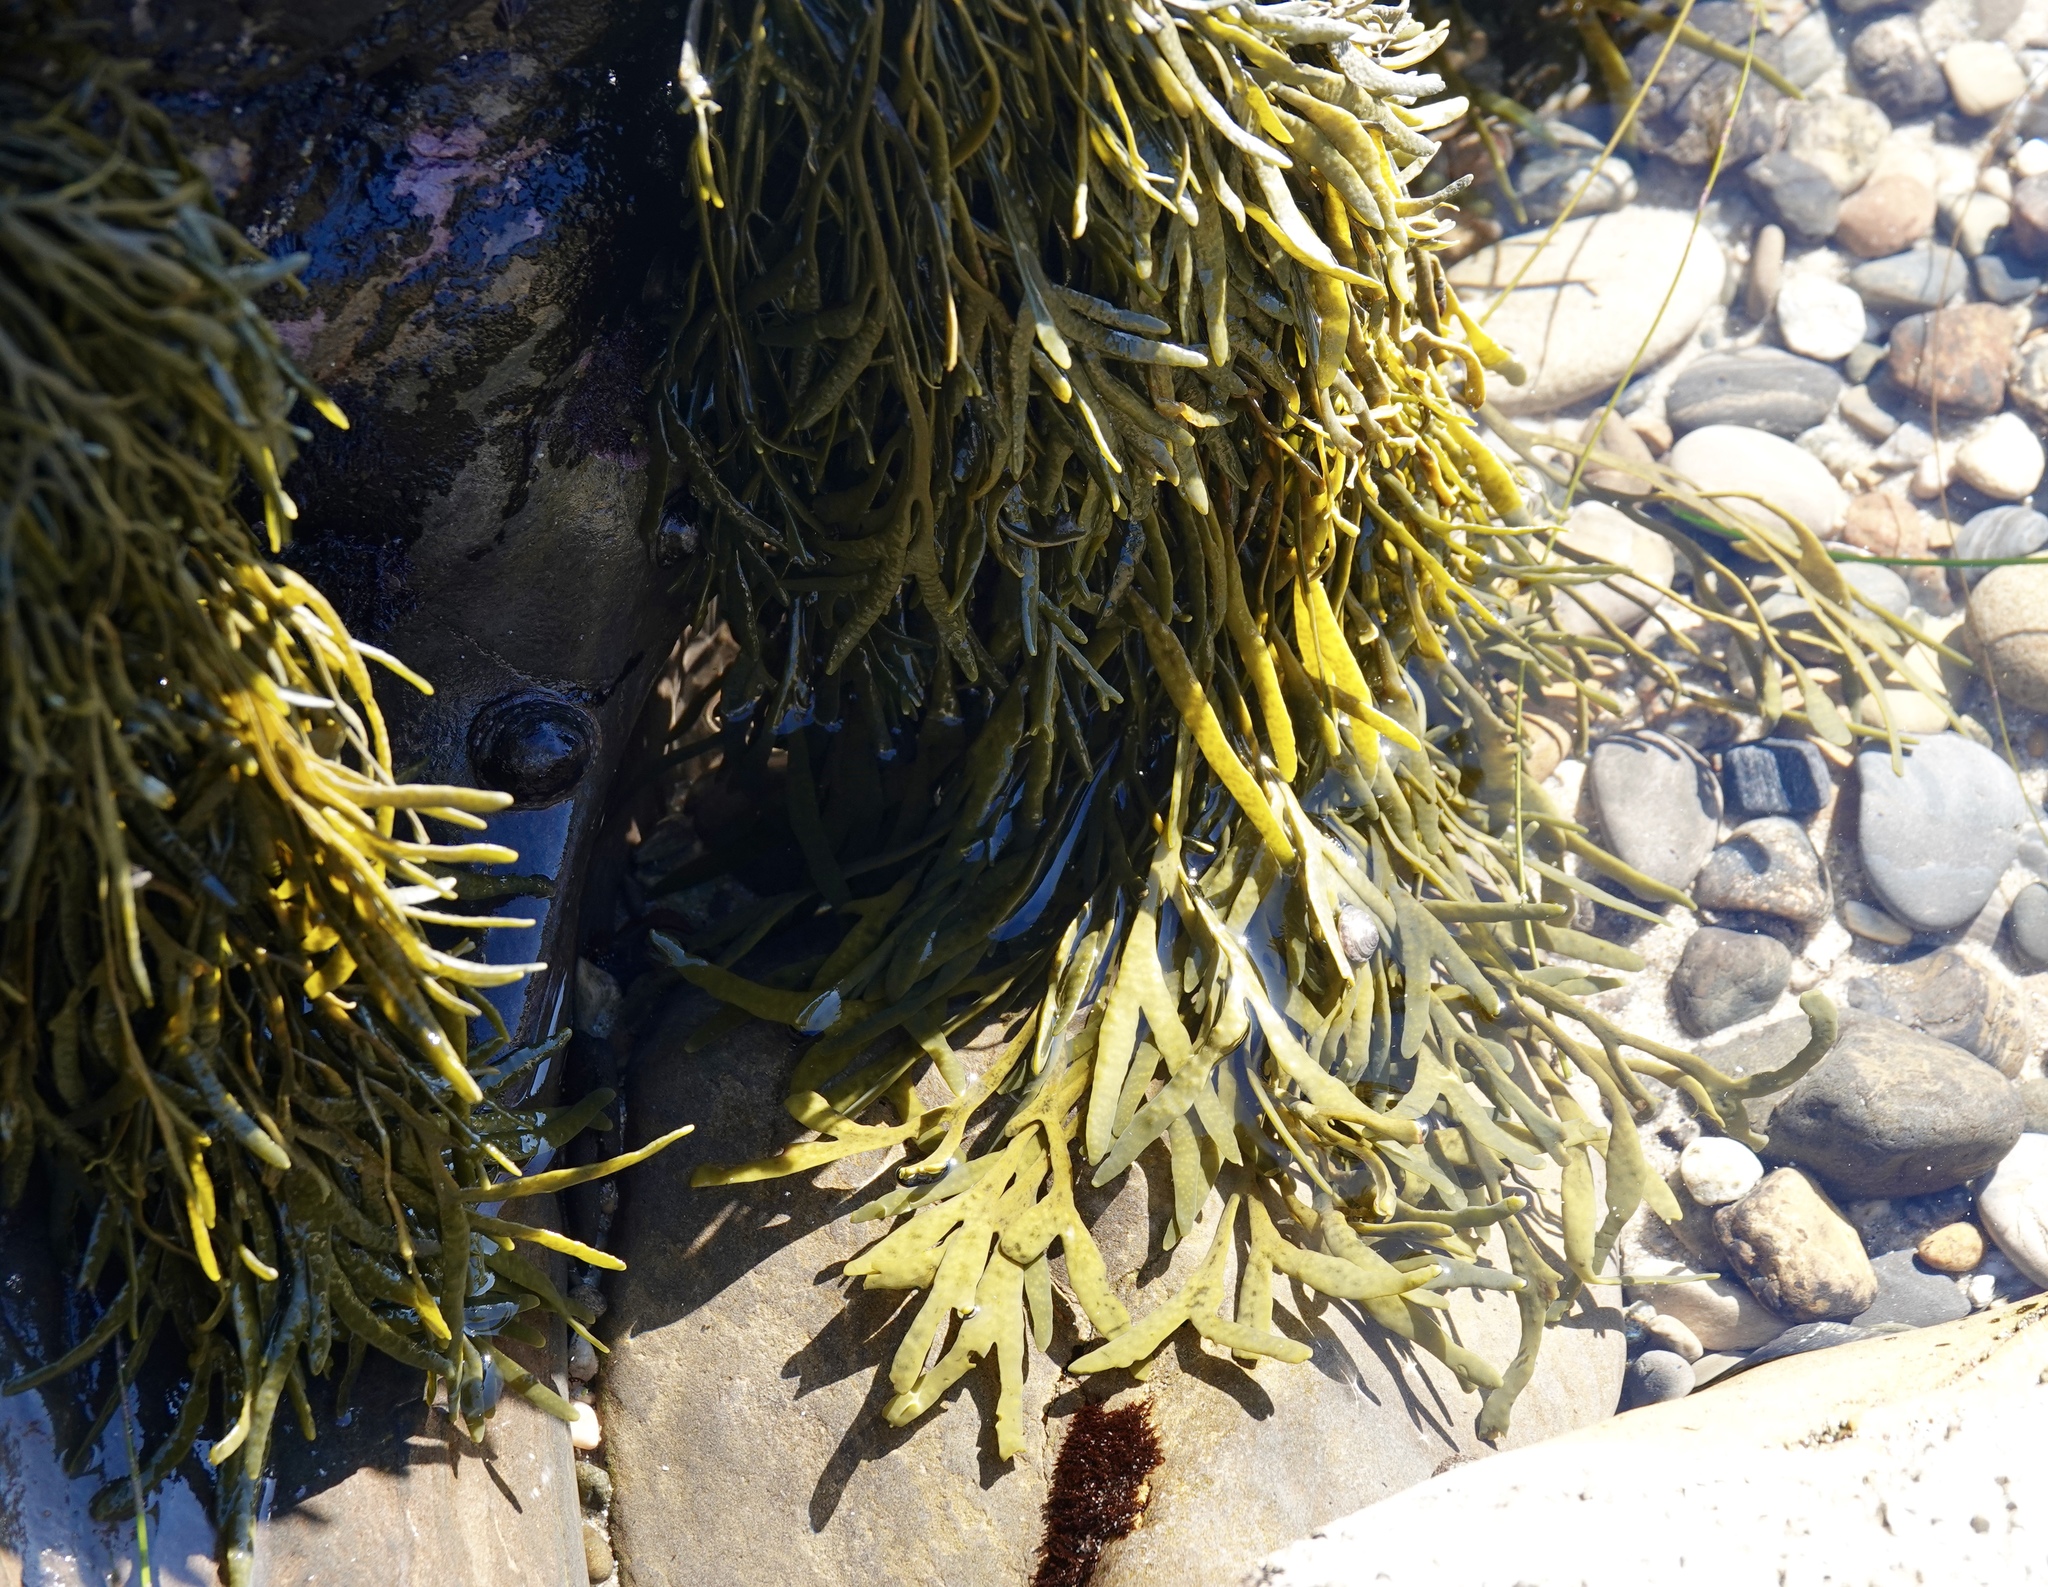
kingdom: Chromista
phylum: Ochrophyta
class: Phaeophyceae
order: Fucales
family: Fucaceae
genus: Silvetia
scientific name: Silvetia
